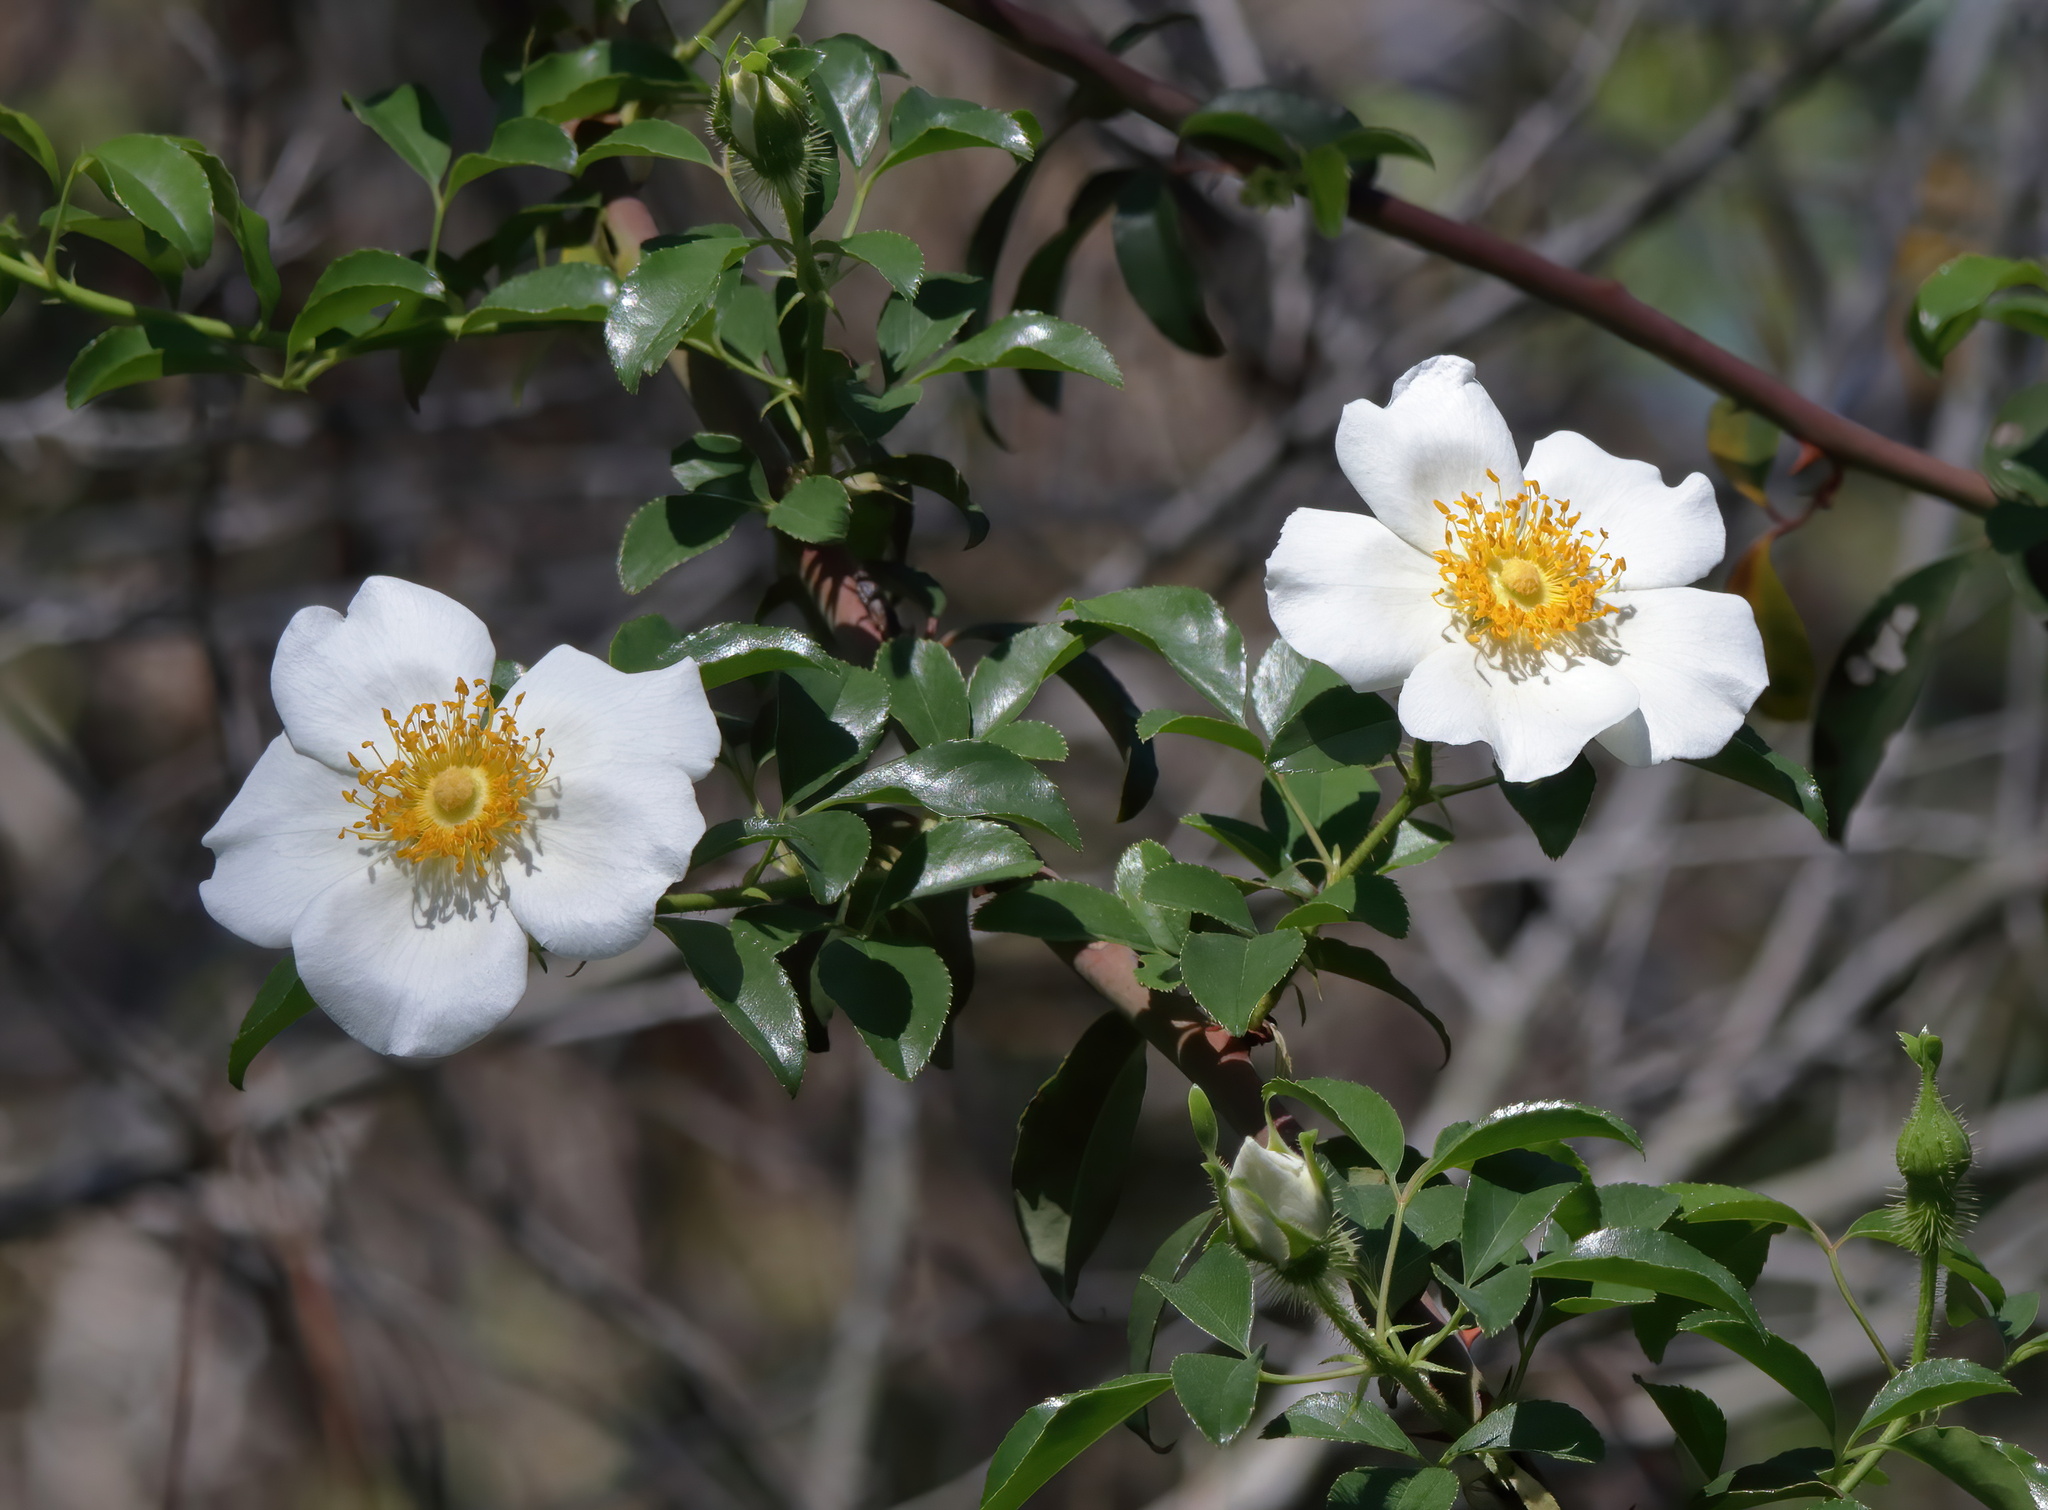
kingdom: Plantae
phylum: Tracheophyta
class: Magnoliopsida
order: Rosales
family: Rosaceae
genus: Rosa
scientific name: Rosa laevigata
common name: Cherokee rose
